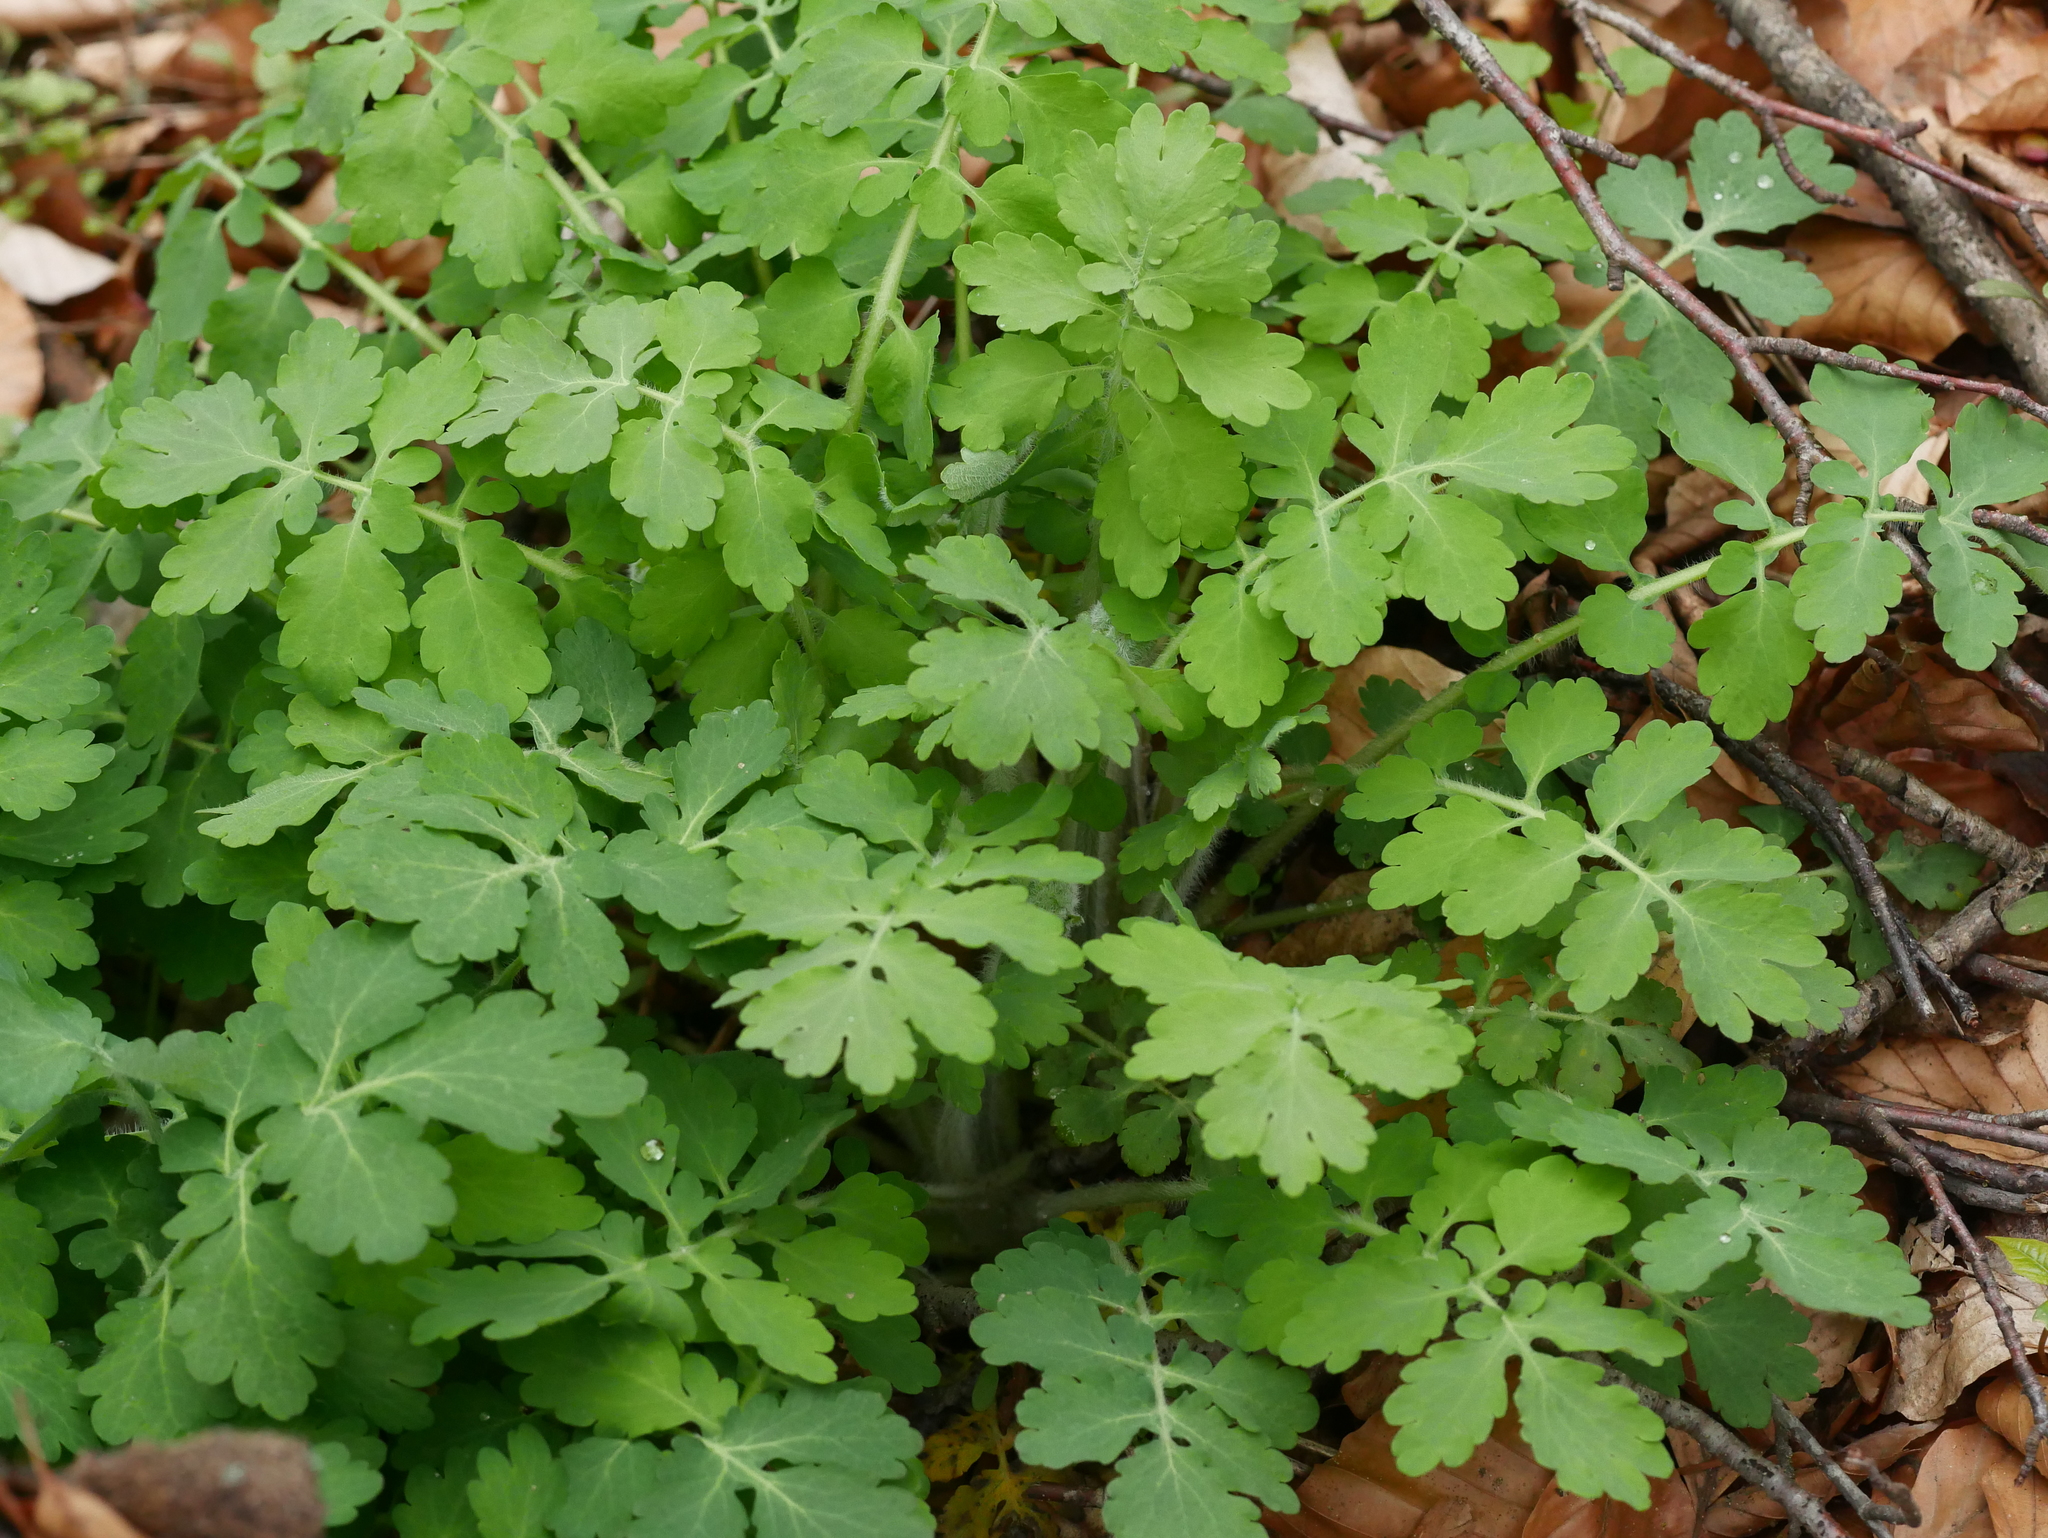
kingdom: Plantae
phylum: Tracheophyta
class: Magnoliopsida
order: Ranunculales
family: Papaveraceae
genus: Chelidonium
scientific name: Chelidonium majus
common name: Greater celandine
